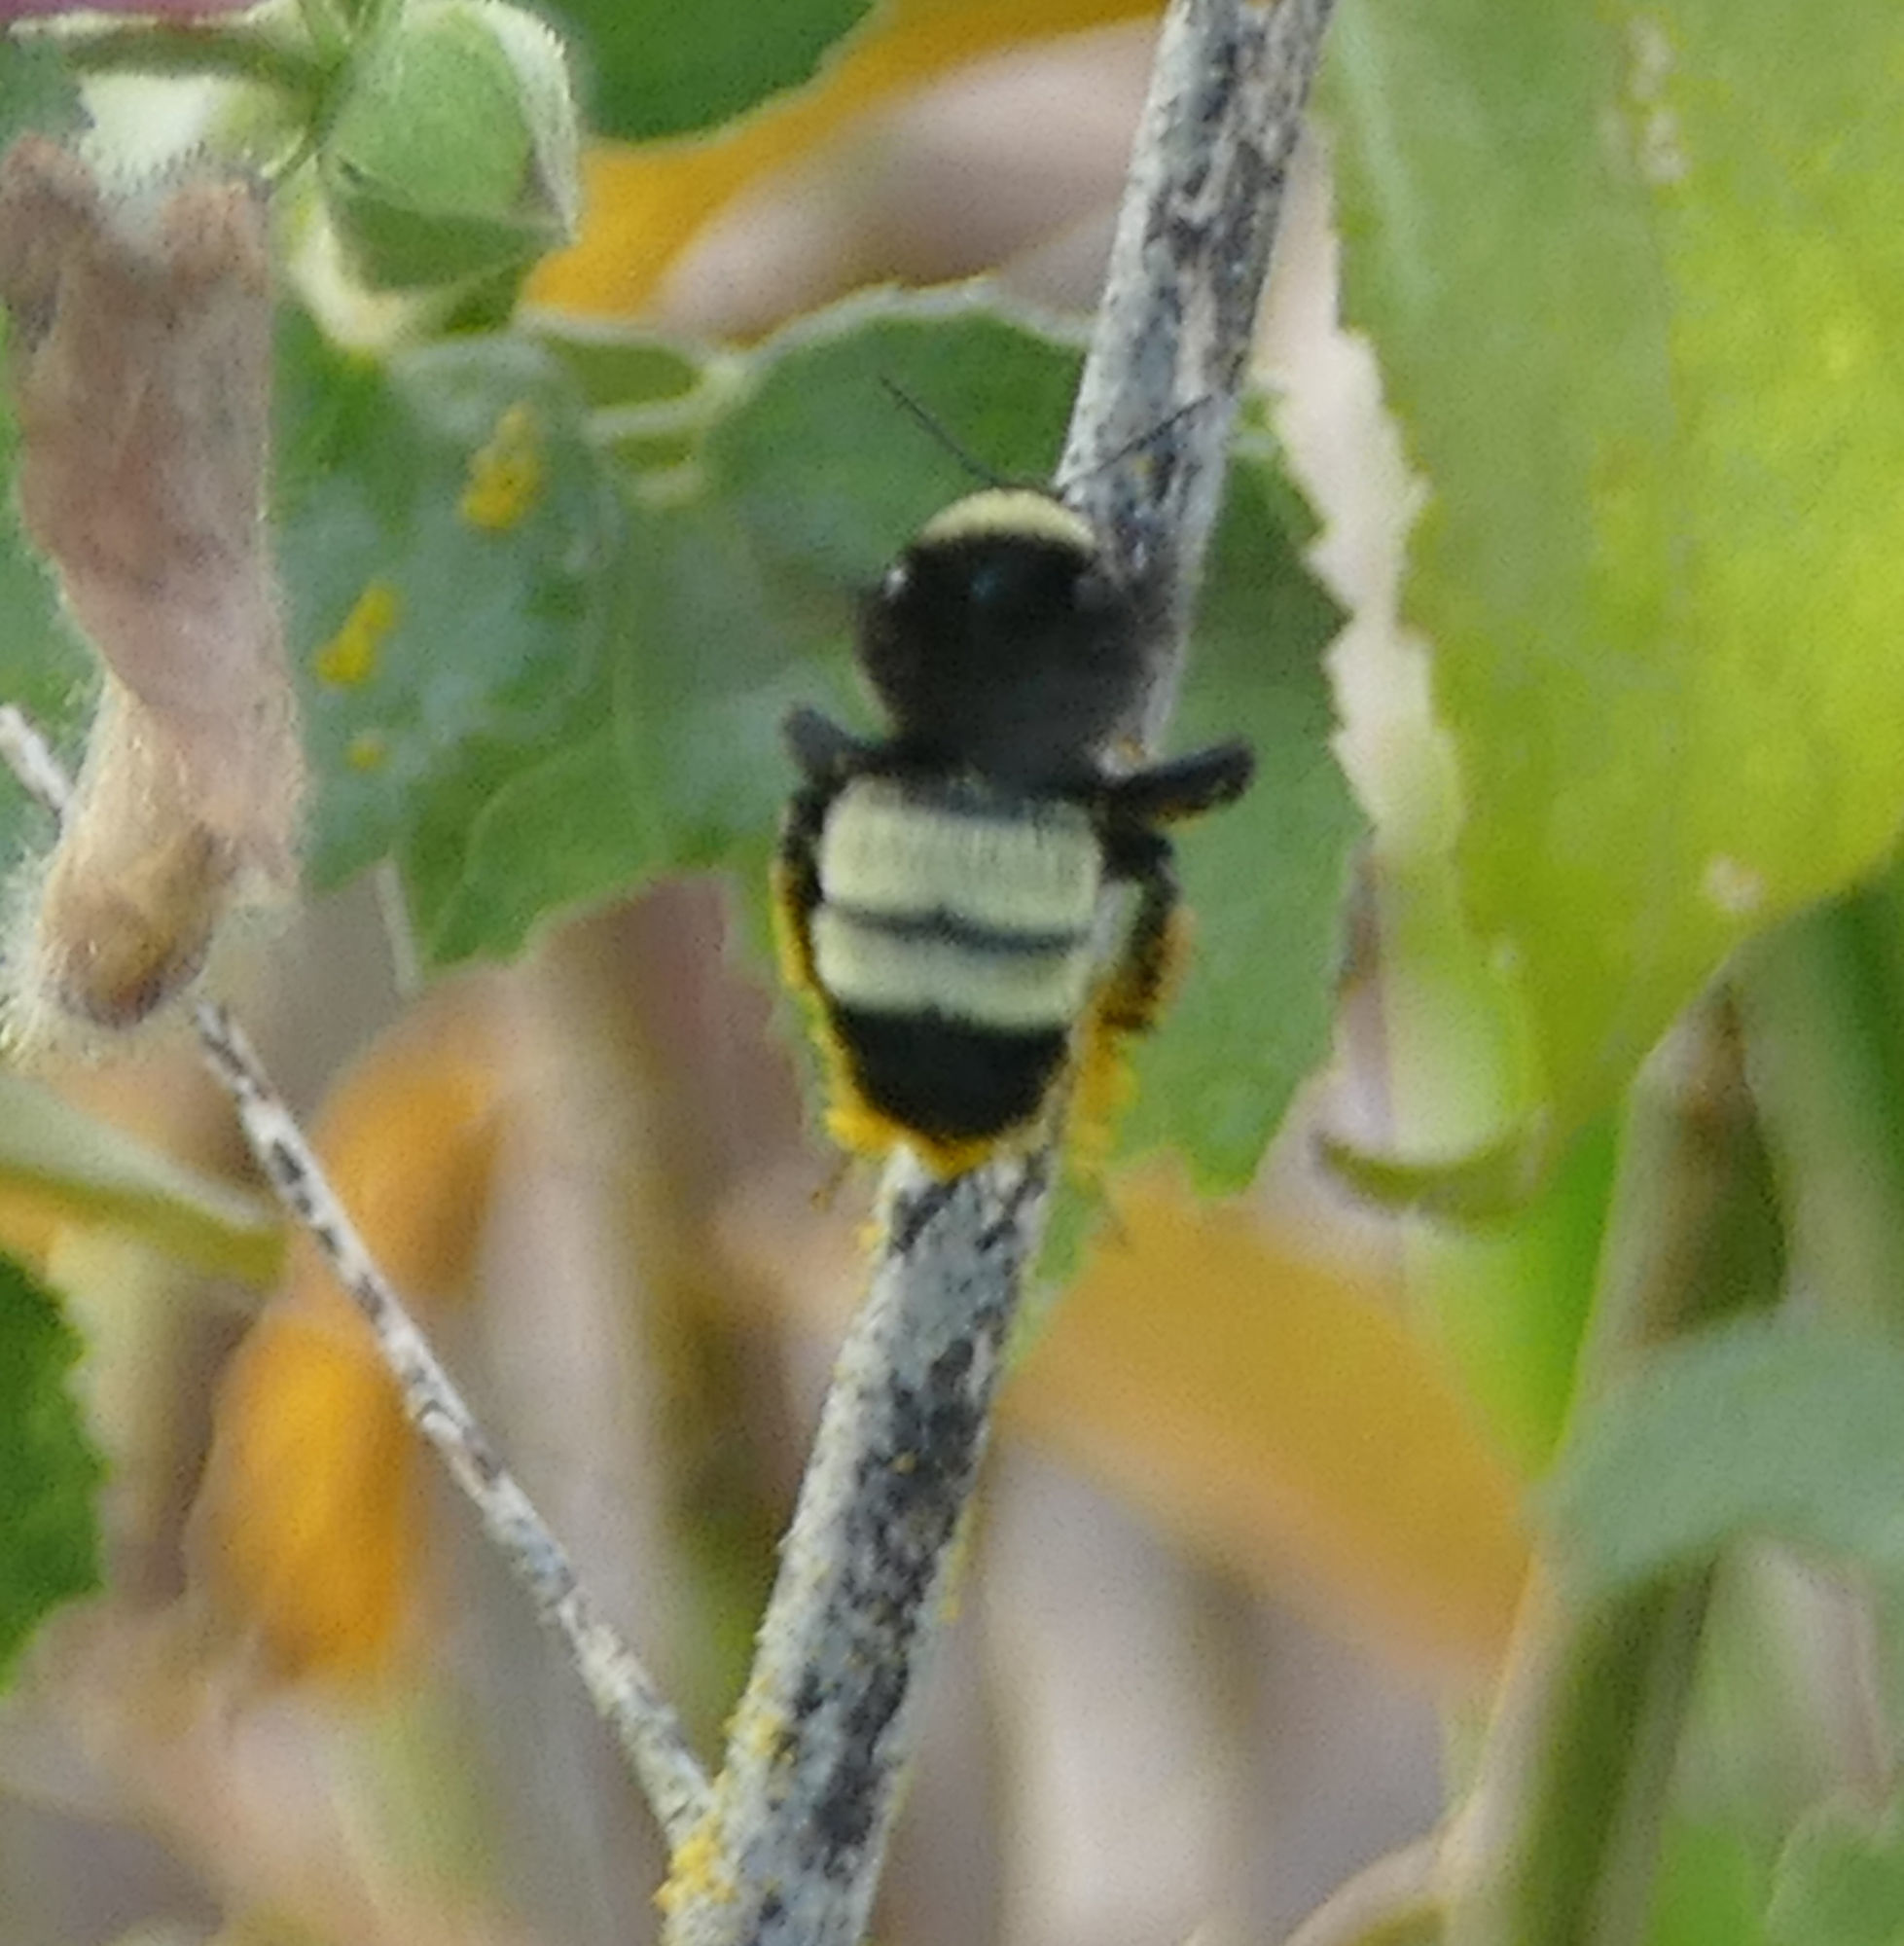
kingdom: Animalia
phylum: Arthropoda
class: Insecta
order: Hymenoptera
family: Apidae
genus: Bombus
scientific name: Bombus pensylvanicus
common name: Bumble bee
